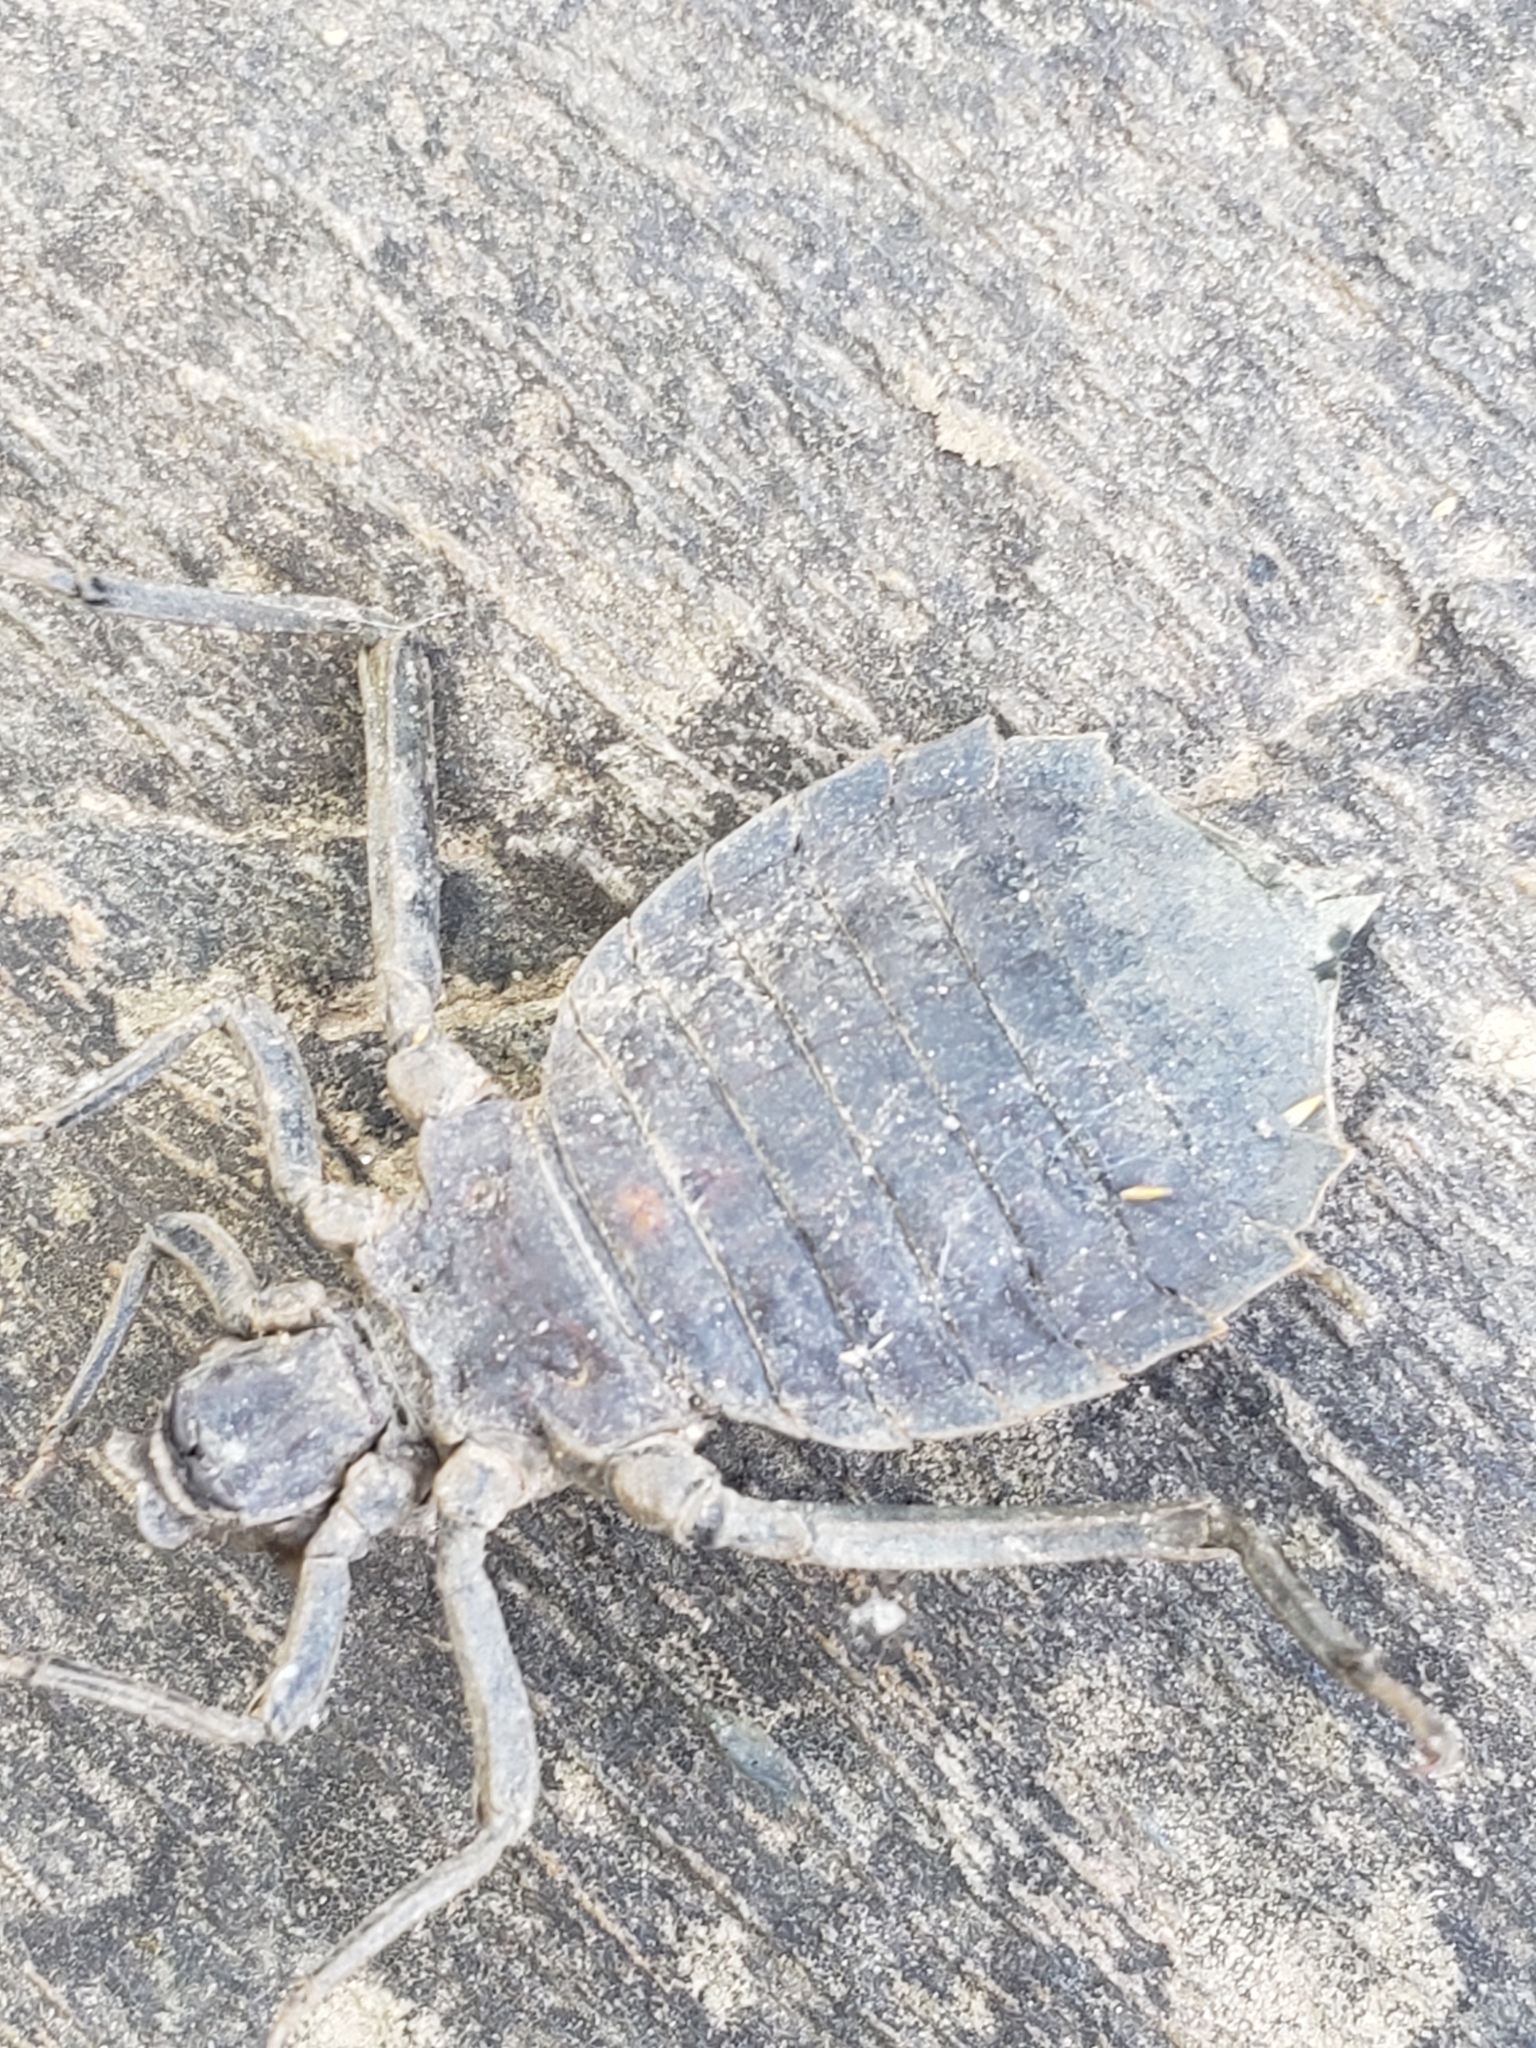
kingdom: Animalia
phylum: Arthropoda
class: Insecta
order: Odonata
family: Gomphidae
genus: Hagenius
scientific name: Hagenius brevistylus
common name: Dragonhunter
